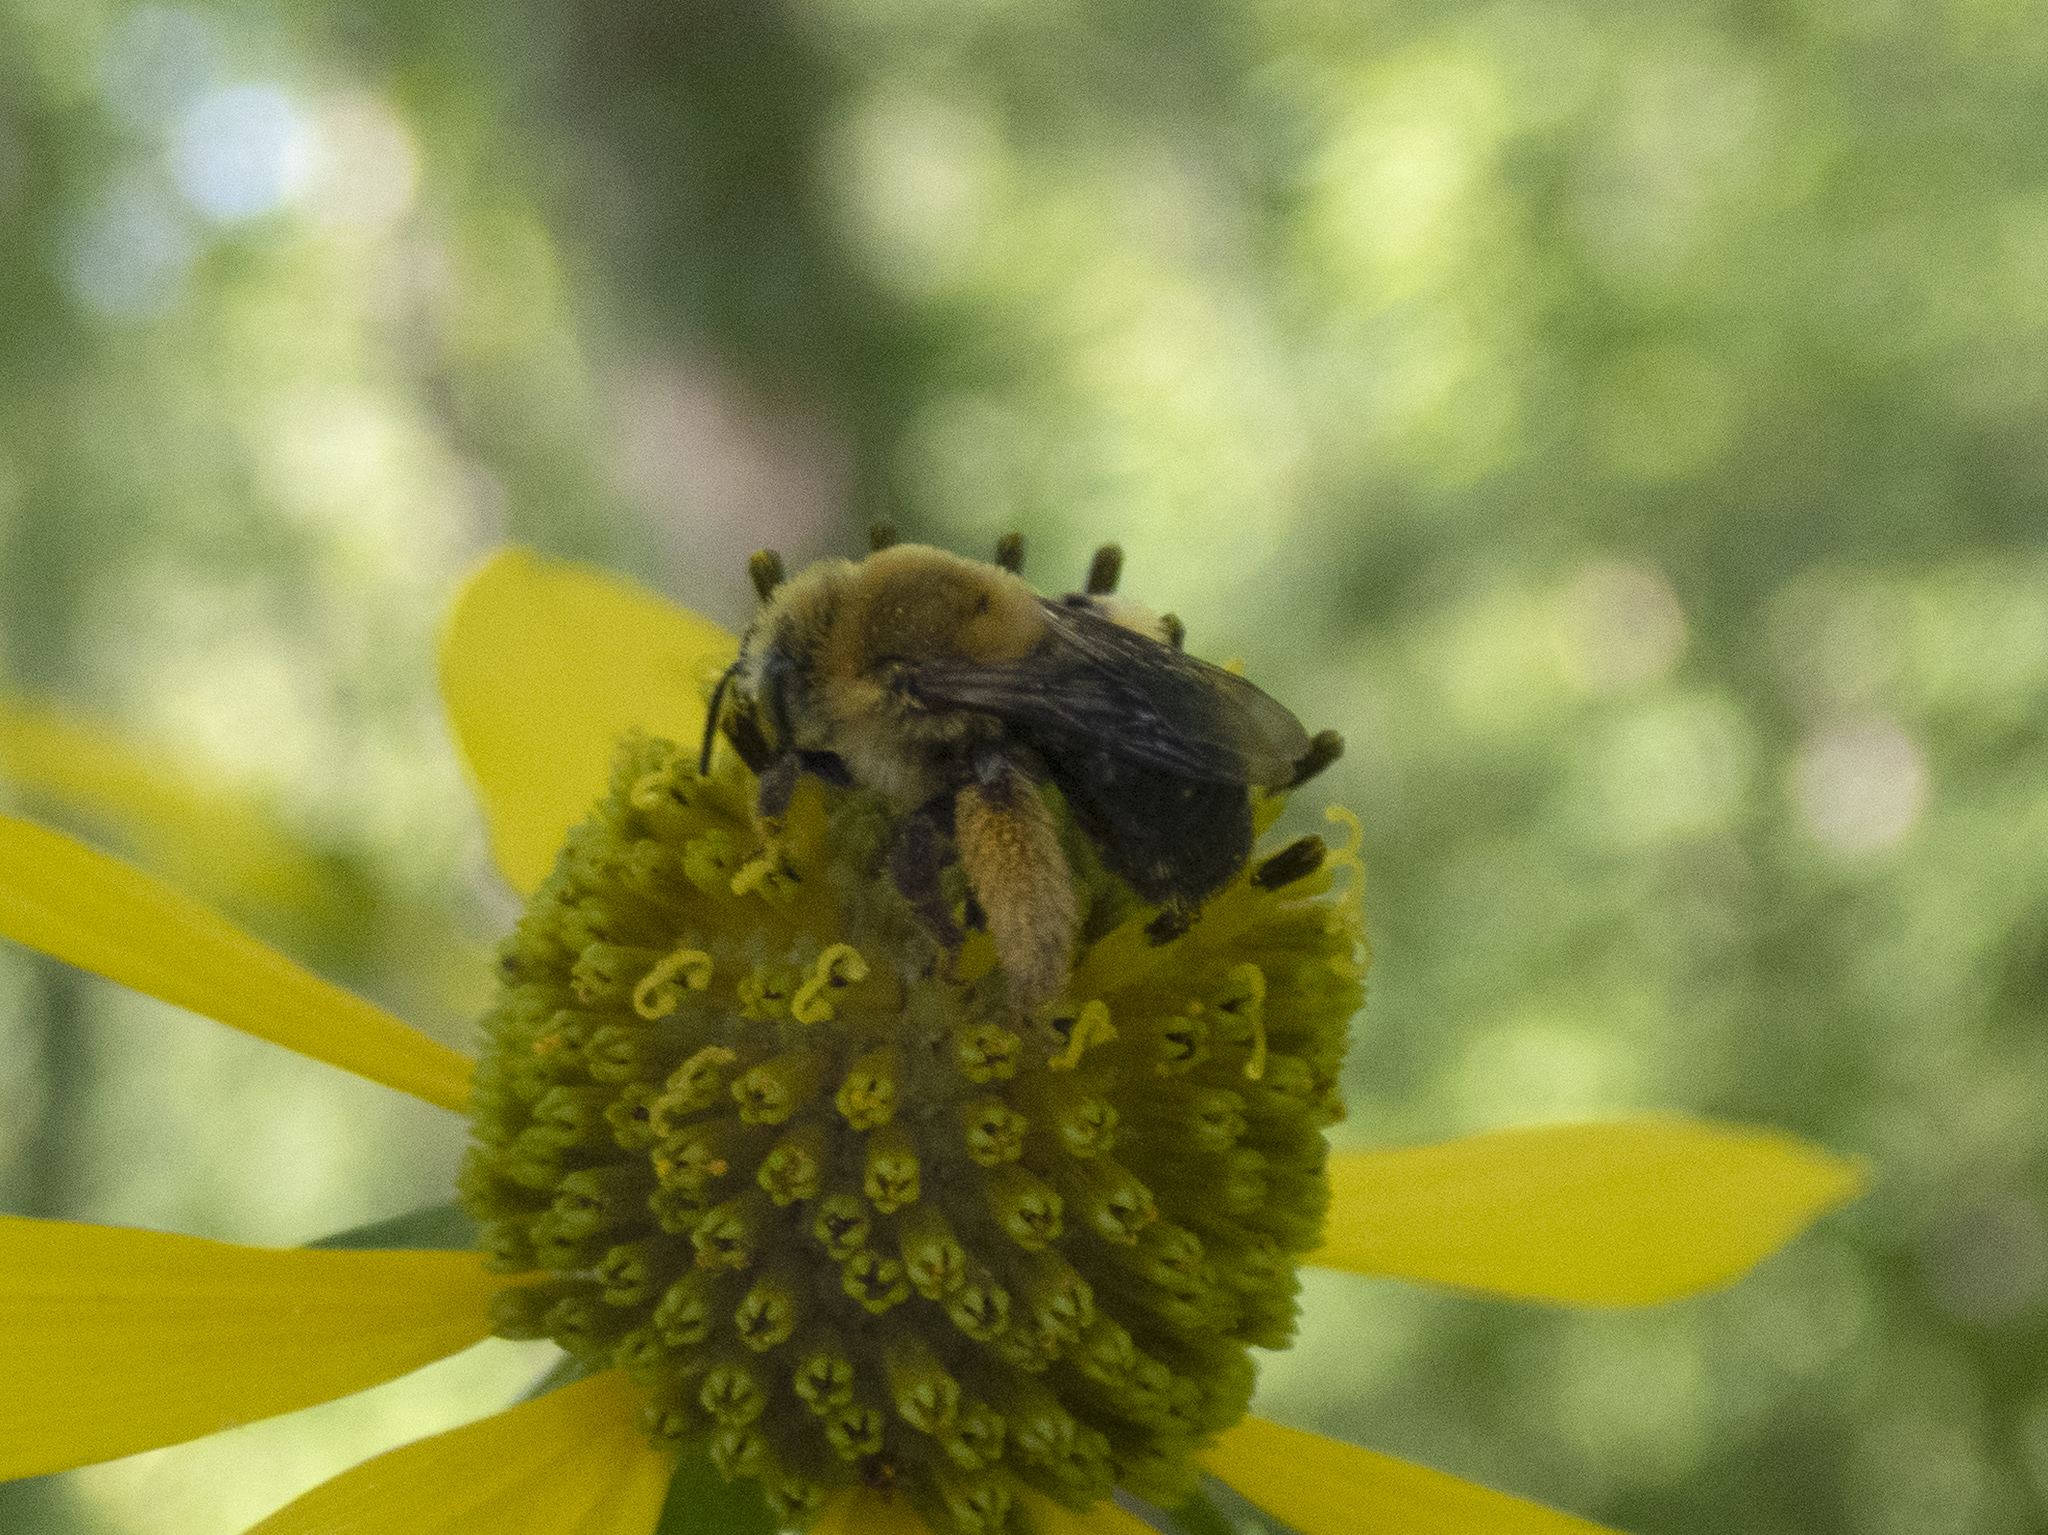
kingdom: Animalia
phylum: Arthropoda
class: Insecta
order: Hymenoptera
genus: Eumelissodes
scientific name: Eumelissodes
